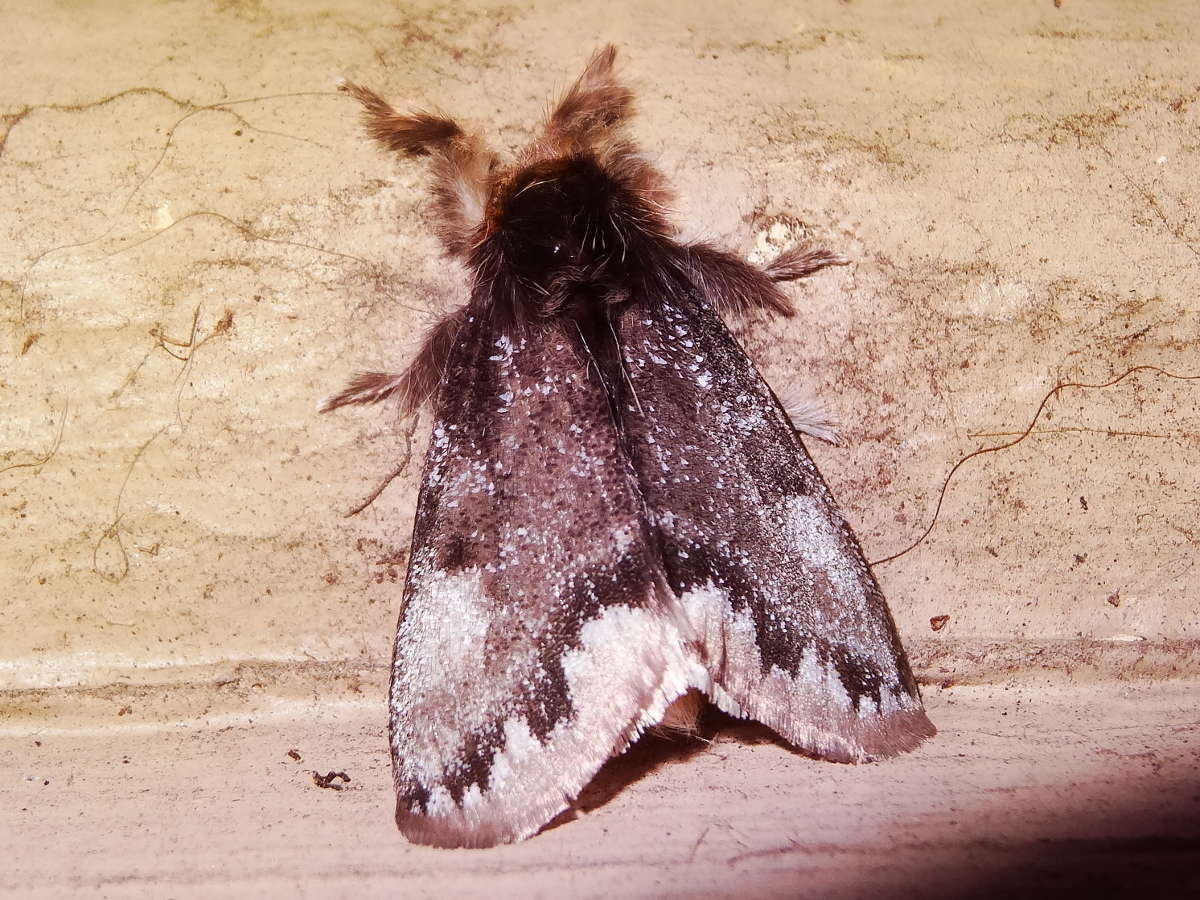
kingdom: Animalia
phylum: Arthropoda
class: Insecta
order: Lepidoptera
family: Erebidae
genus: Euproctis
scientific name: Euproctis
